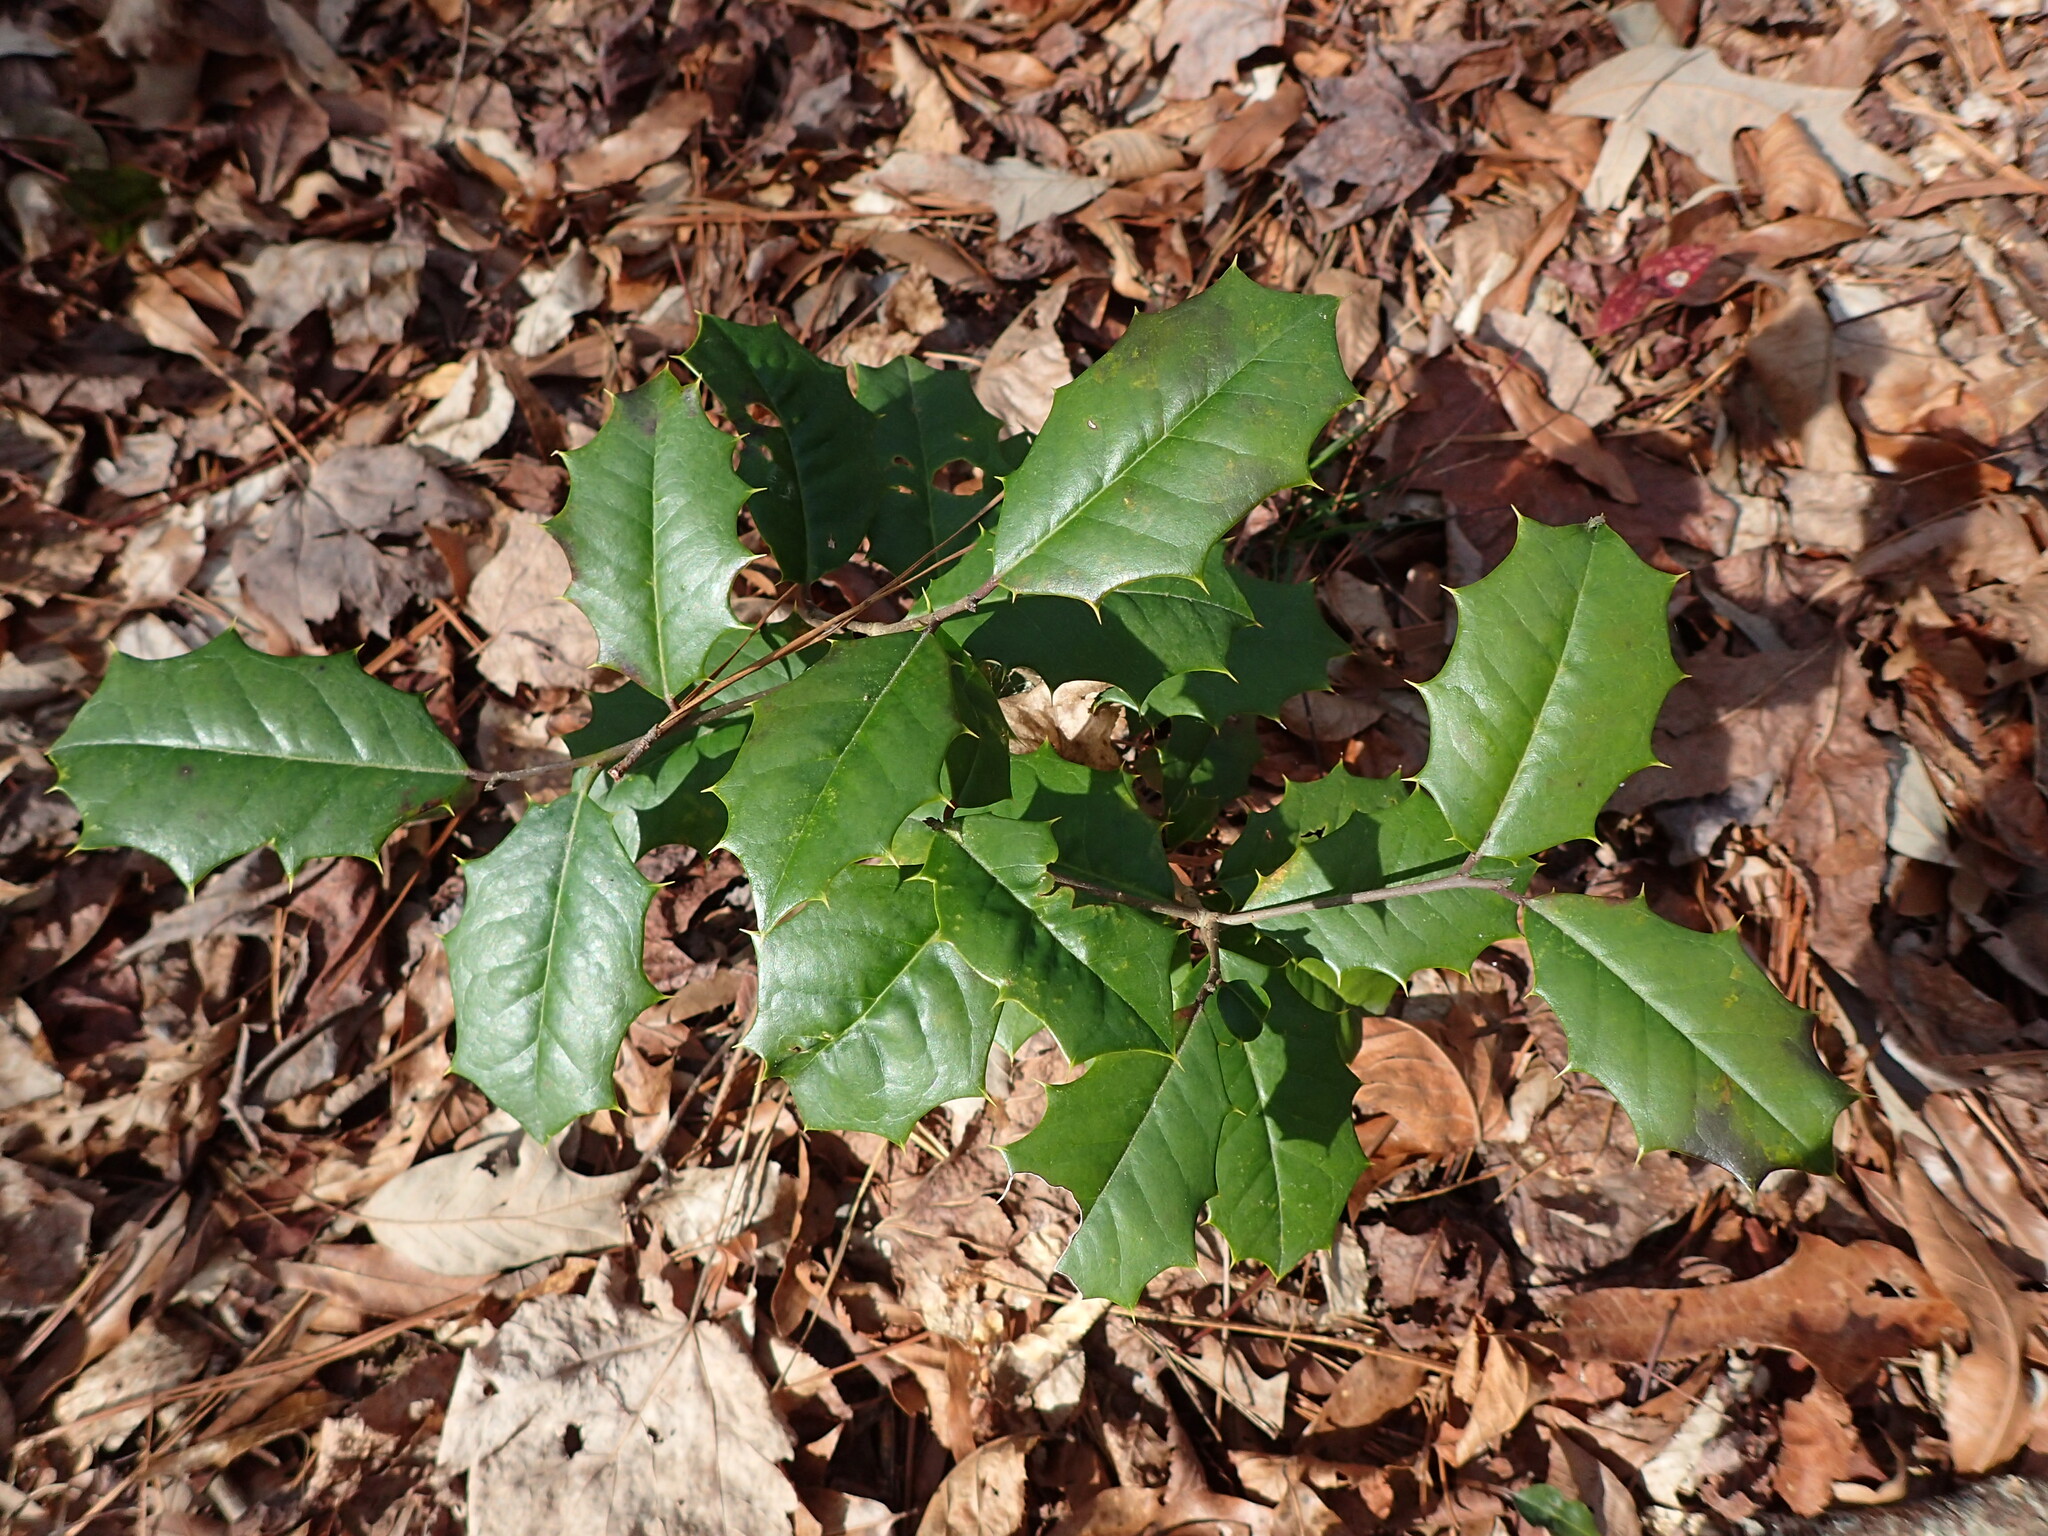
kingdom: Plantae
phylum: Tracheophyta
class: Magnoliopsida
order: Aquifoliales
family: Aquifoliaceae
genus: Ilex
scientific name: Ilex opaca
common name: American holly
